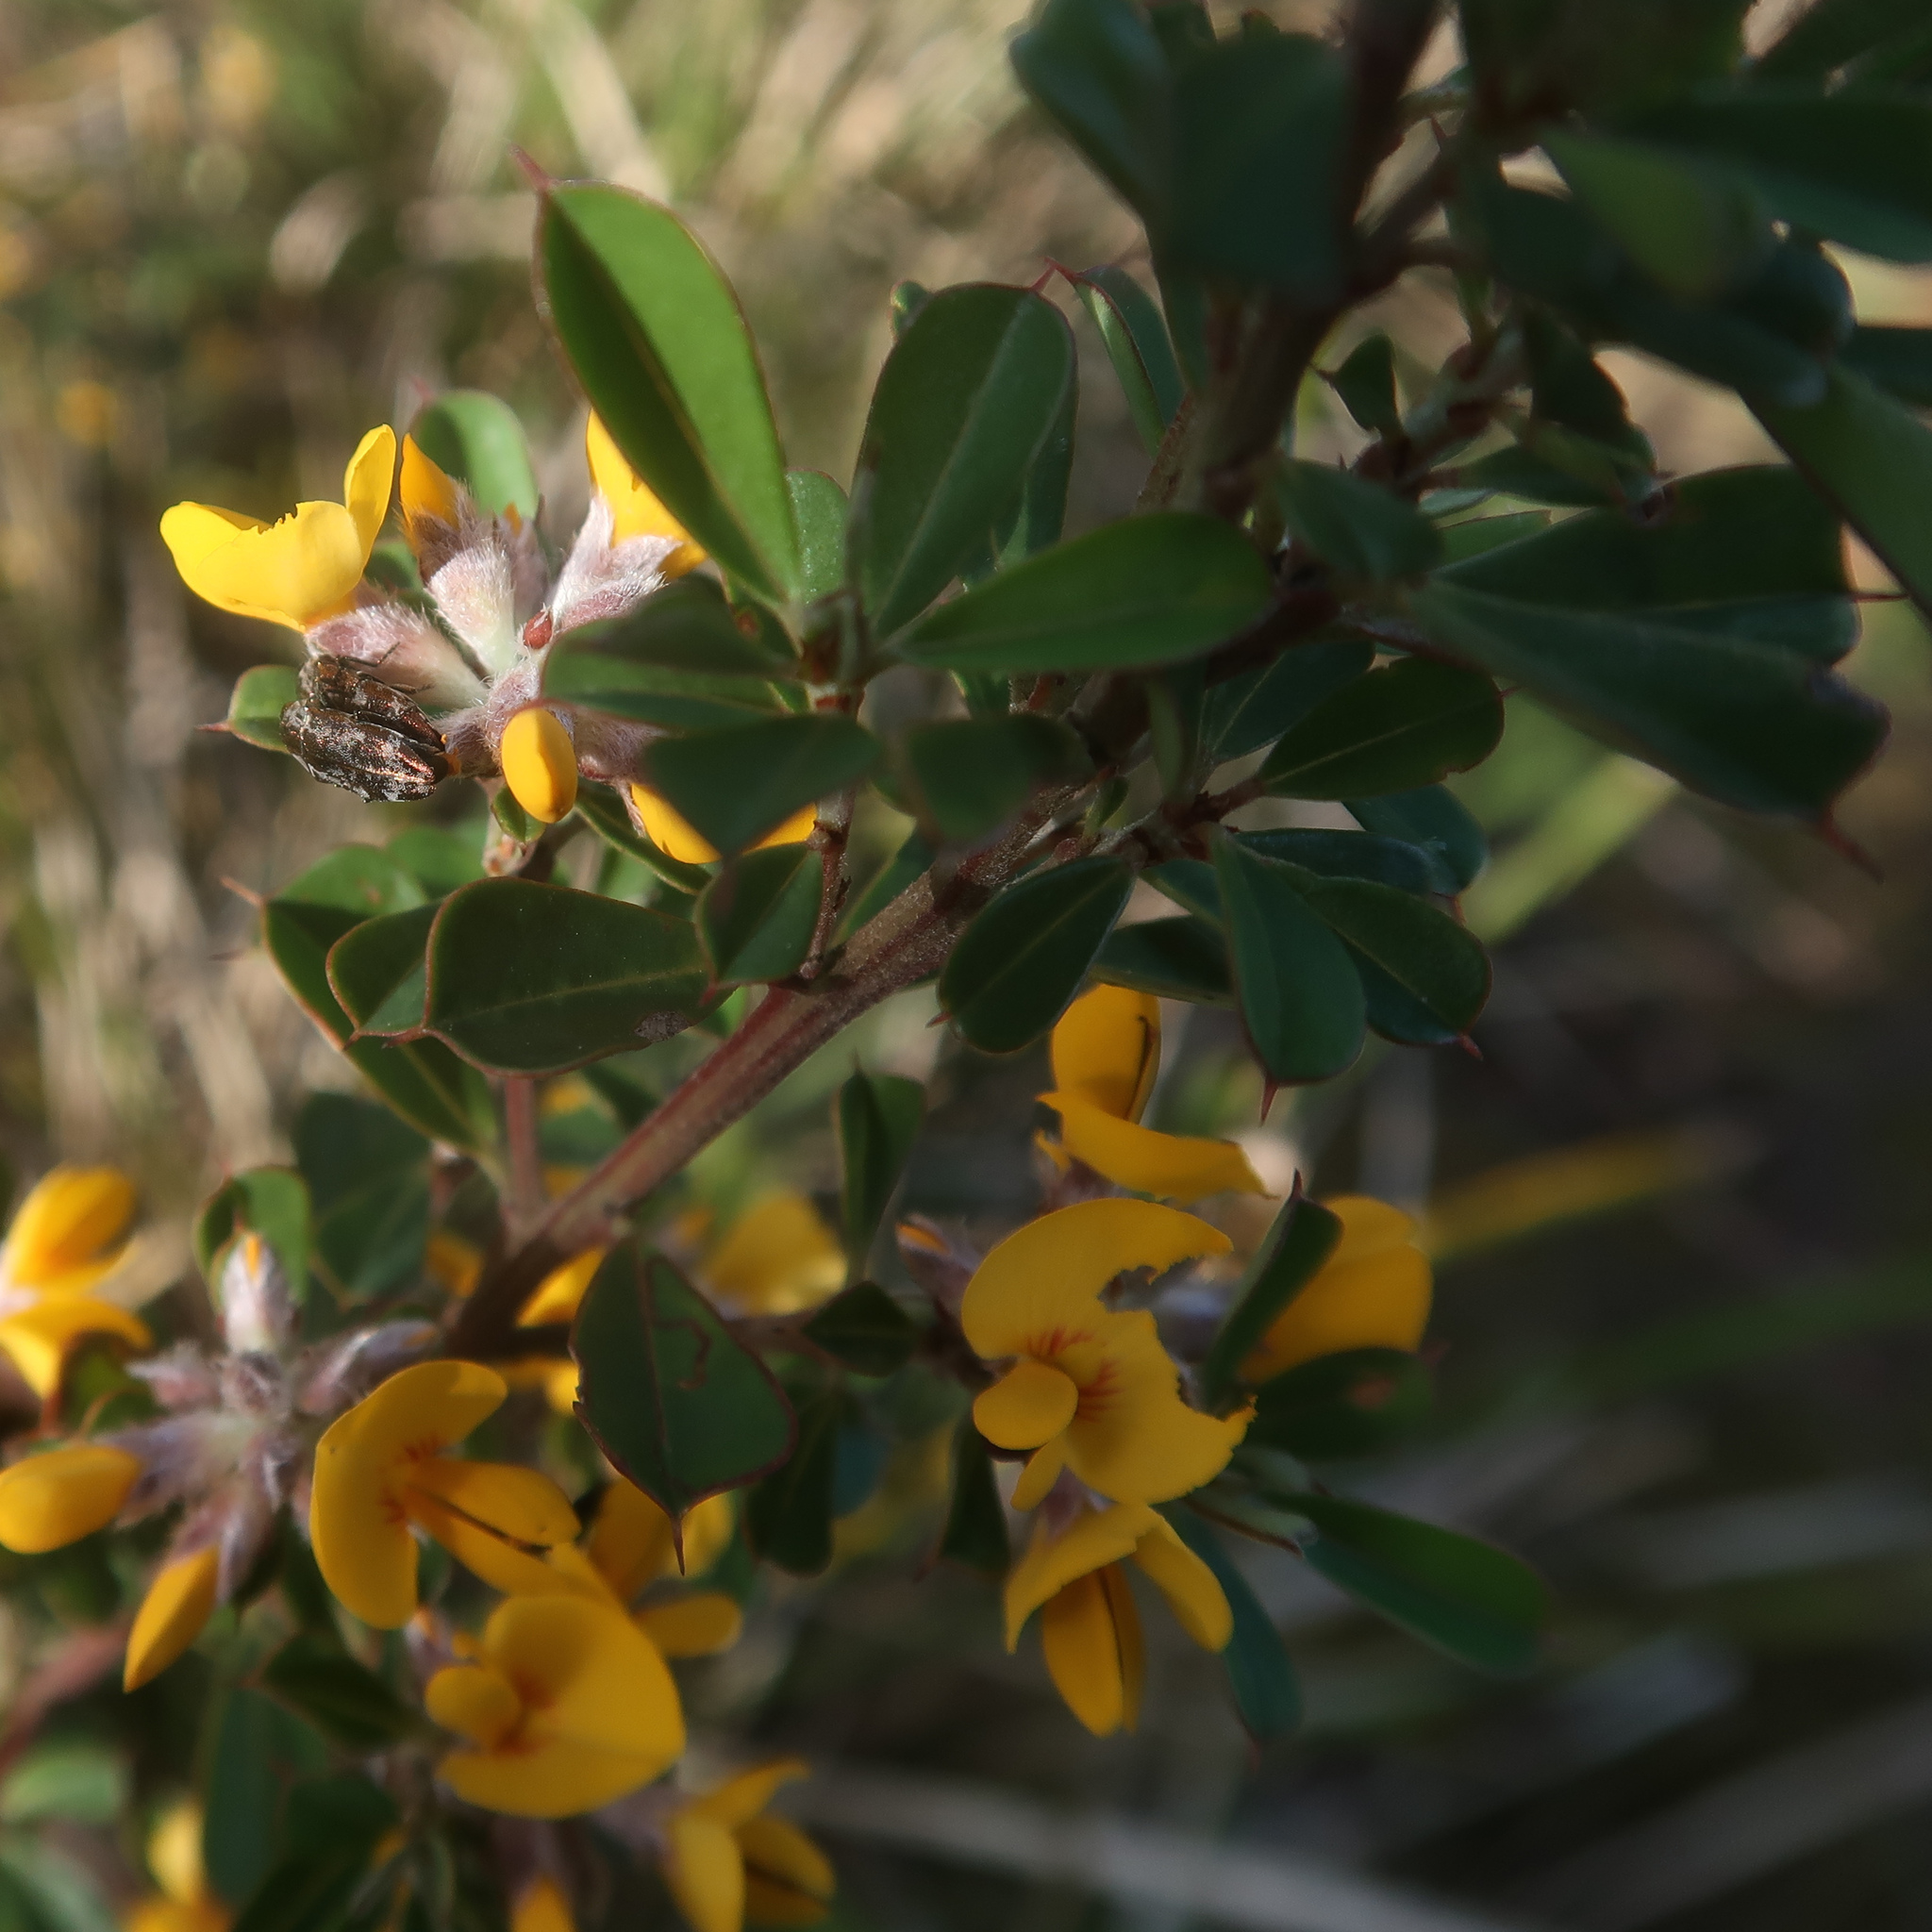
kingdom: Plantae
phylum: Tracheophyta
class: Magnoliopsida
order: Fabales
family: Fabaceae
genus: Pultenaea
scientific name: Pultenaea daphnoides
